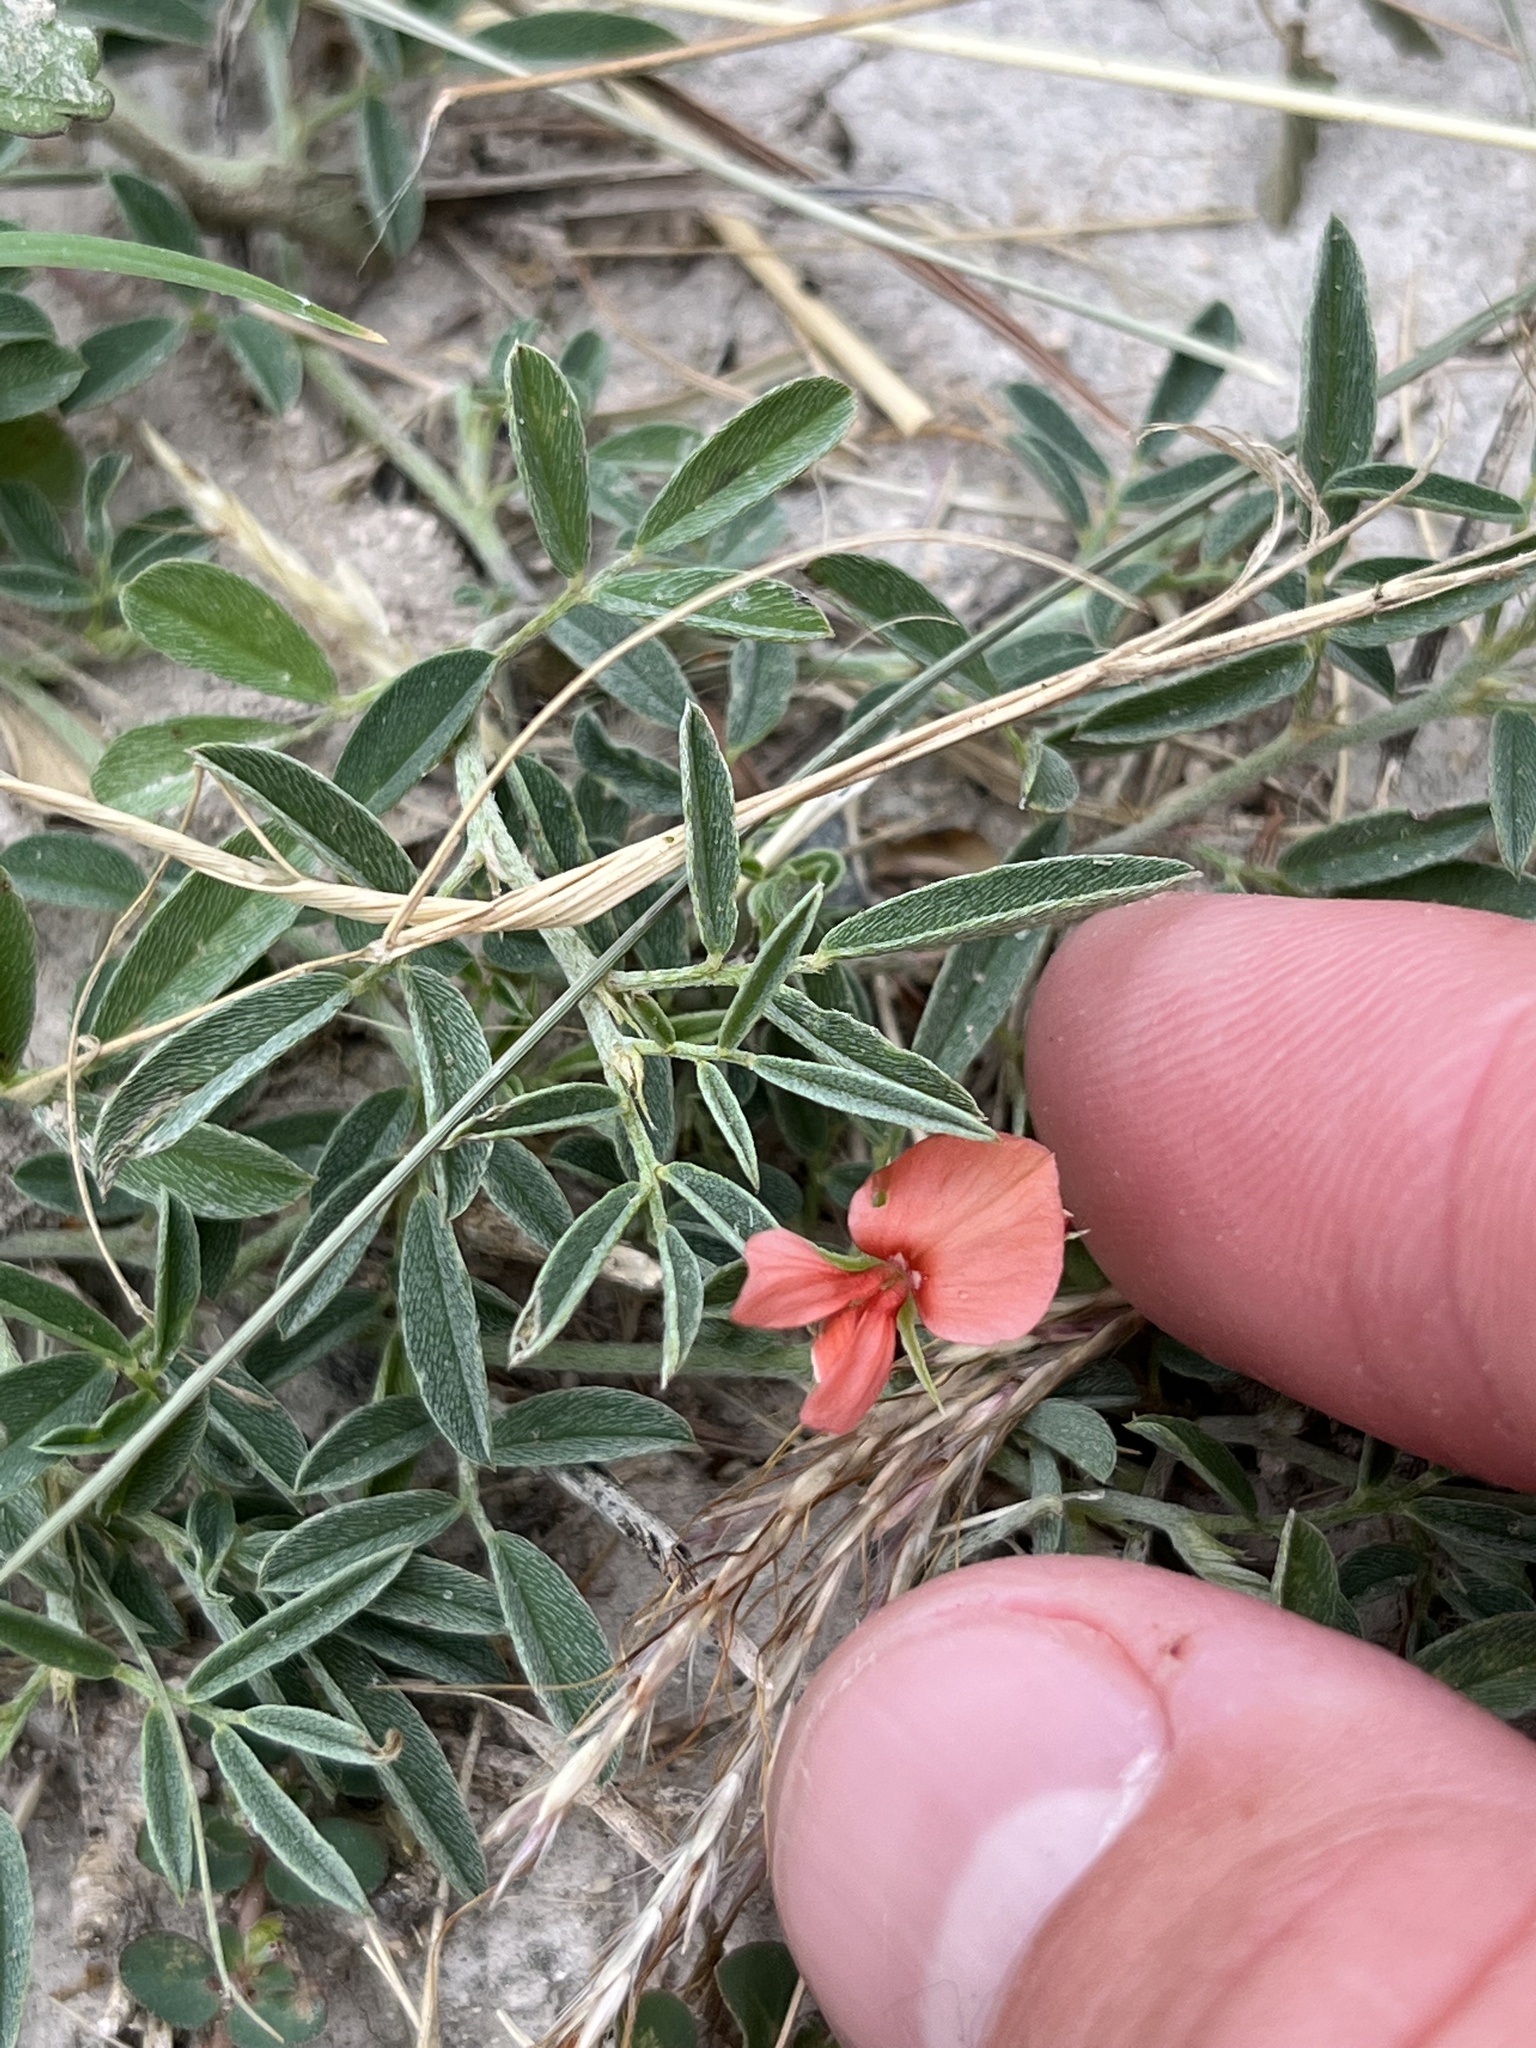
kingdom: Plantae
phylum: Tracheophyta
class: Magnoliopsida
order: Fabales
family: Fabaceae
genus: Indigofera
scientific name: Indigofera miniata
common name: Coast indigo
